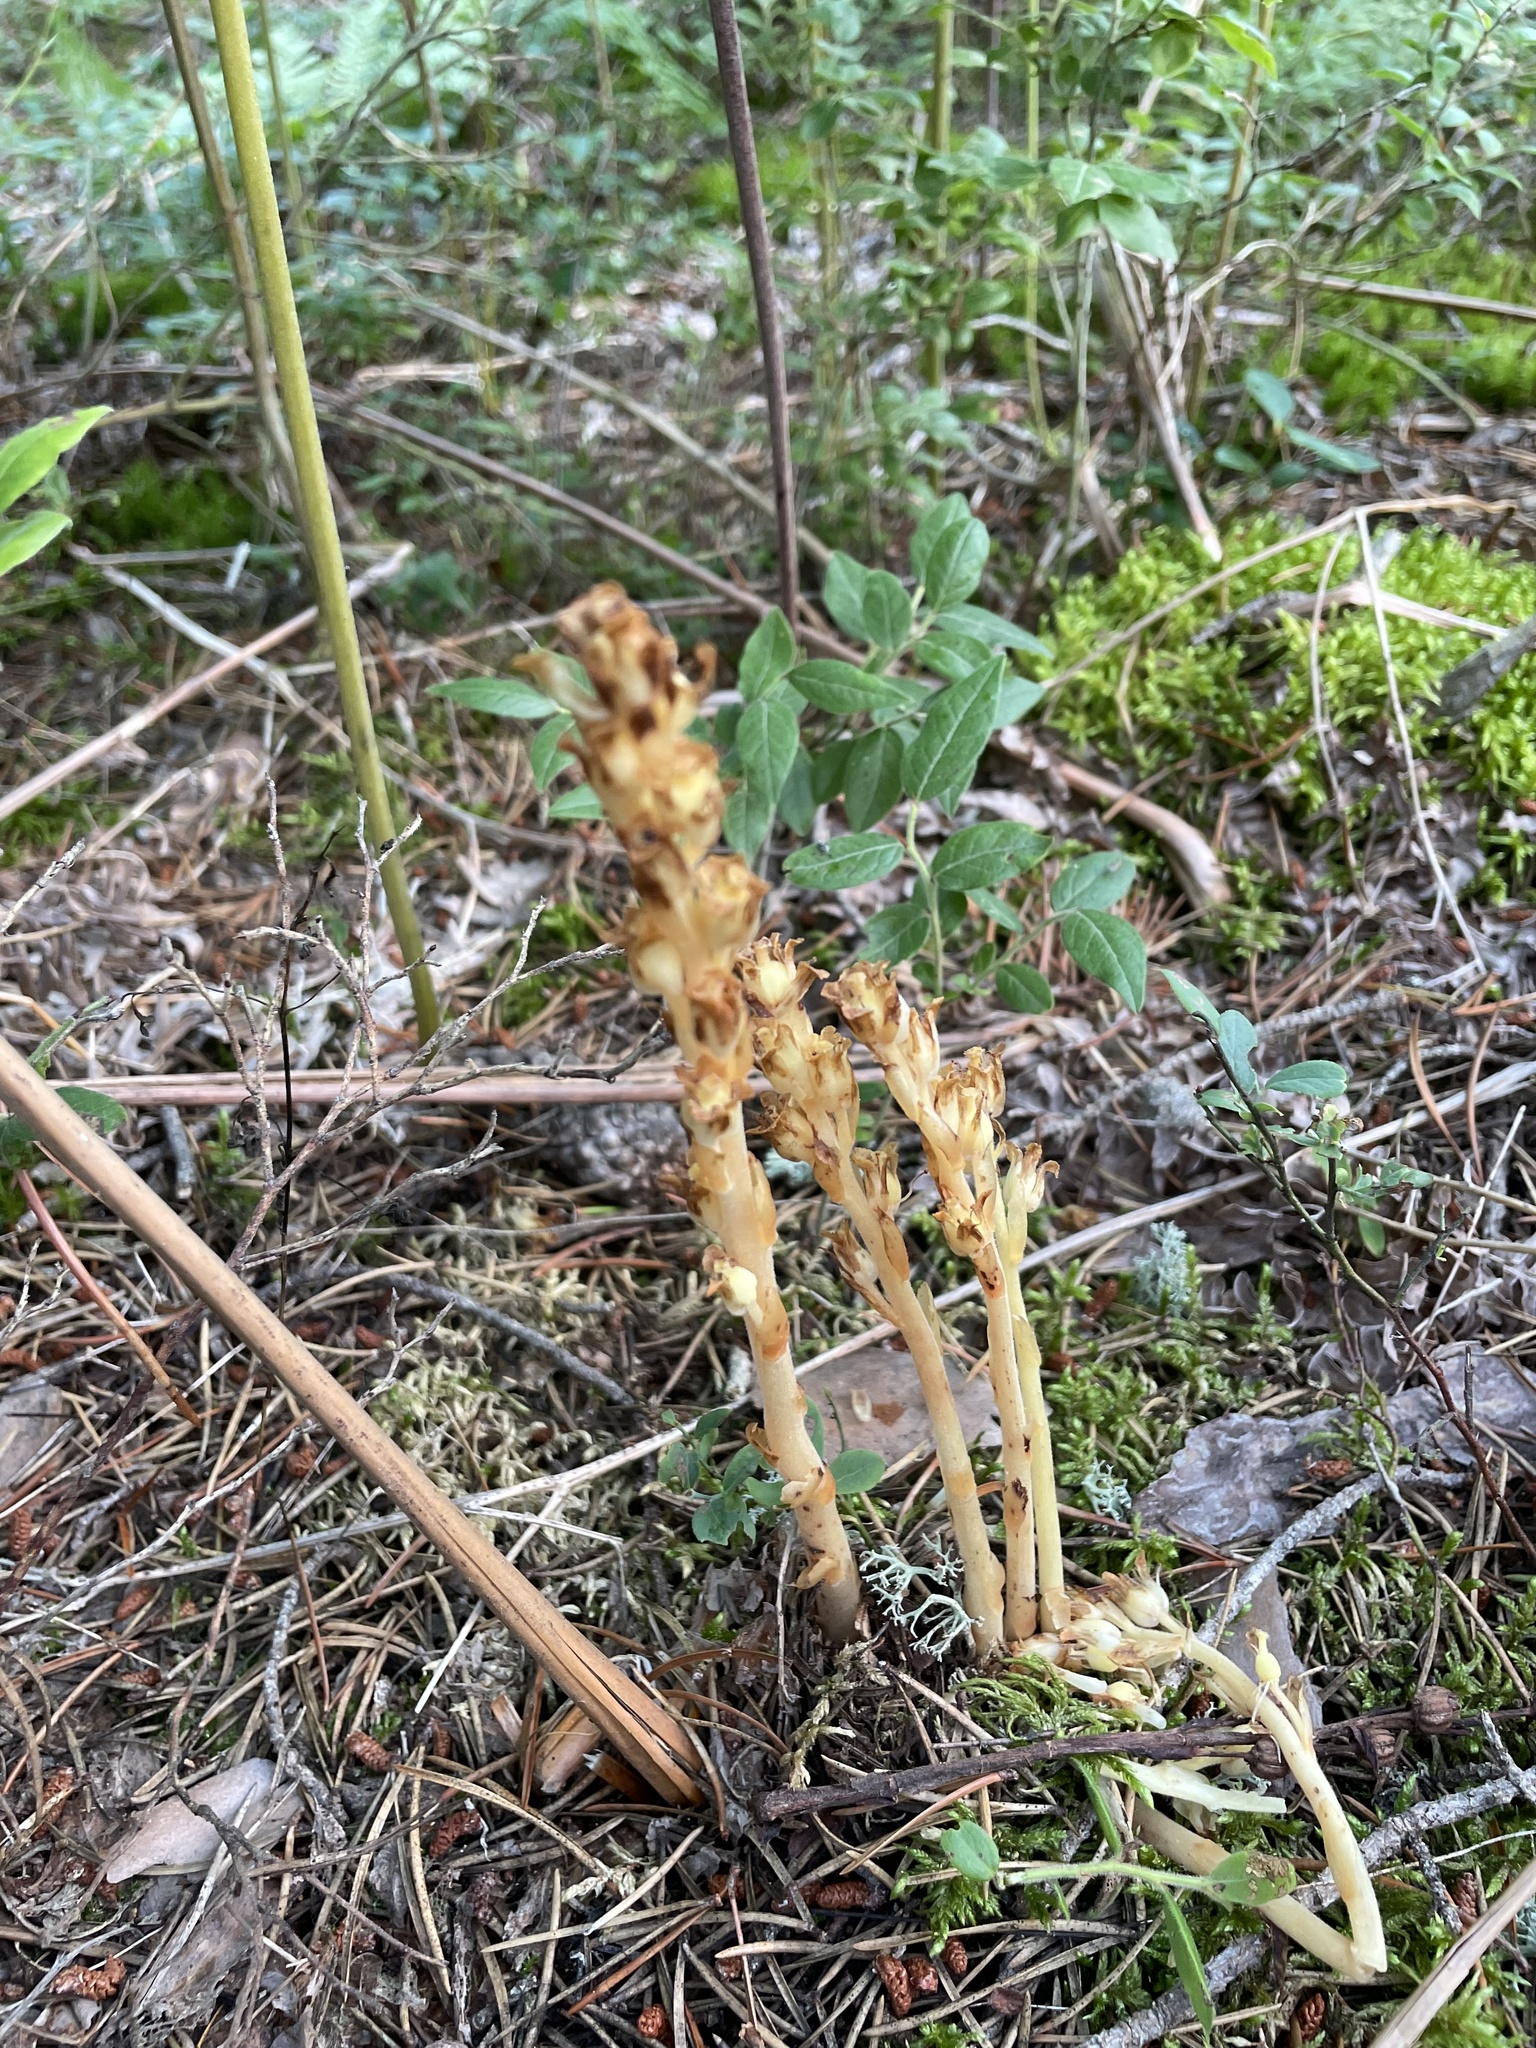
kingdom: Plantae
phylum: Tracheophyta
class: Magnoliopsida
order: Ericales
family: Ericaceae
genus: Hypopitys
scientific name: Hypopitys monotropa
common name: Yellow bird's-nest
